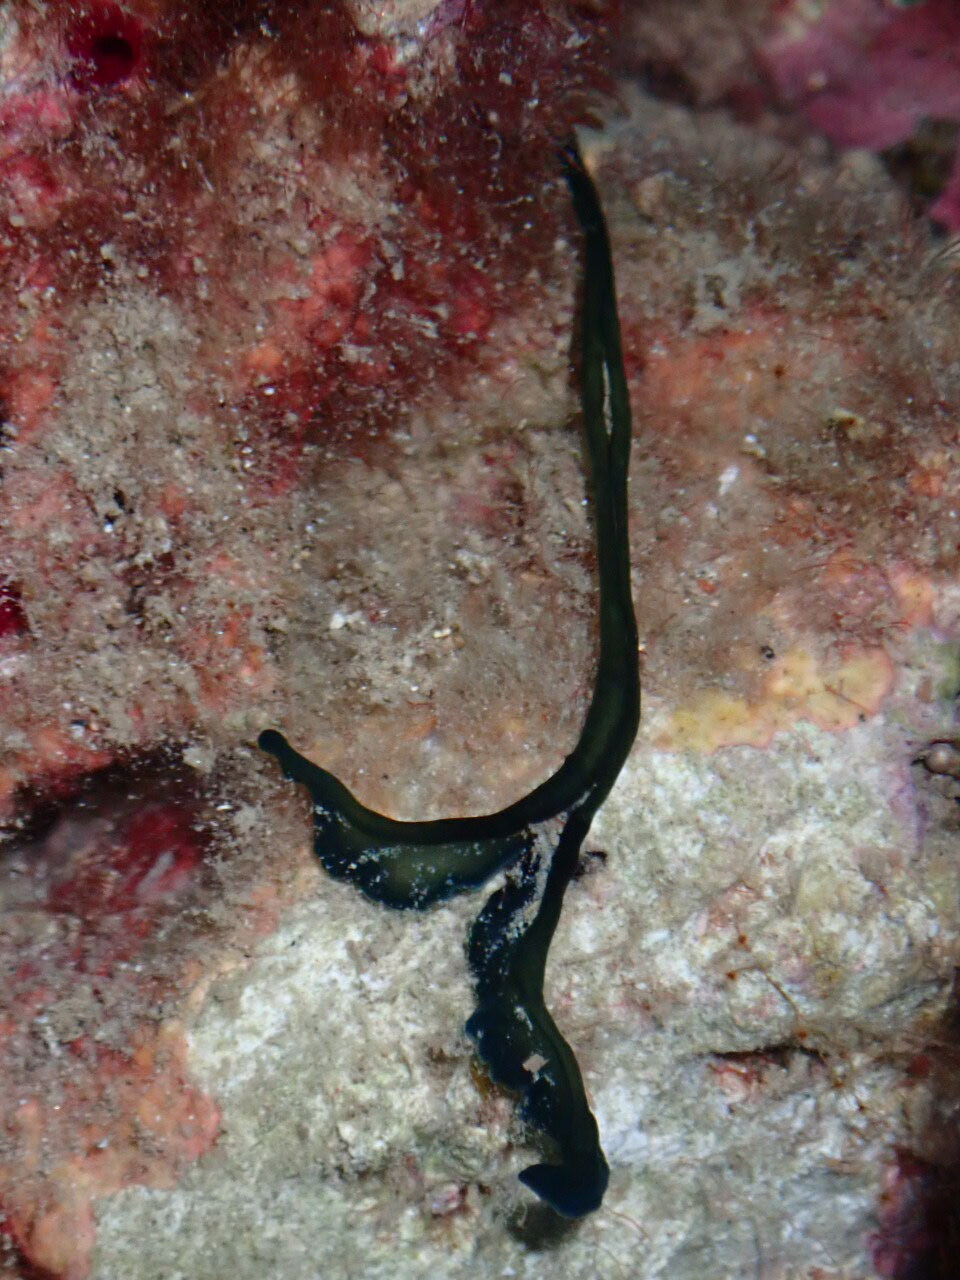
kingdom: Animalia
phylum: Annelida
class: Polychaeta
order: Echiuroidea
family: Bonelliidae
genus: Bonellia
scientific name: Bonellia viridis
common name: Green spoon worm
